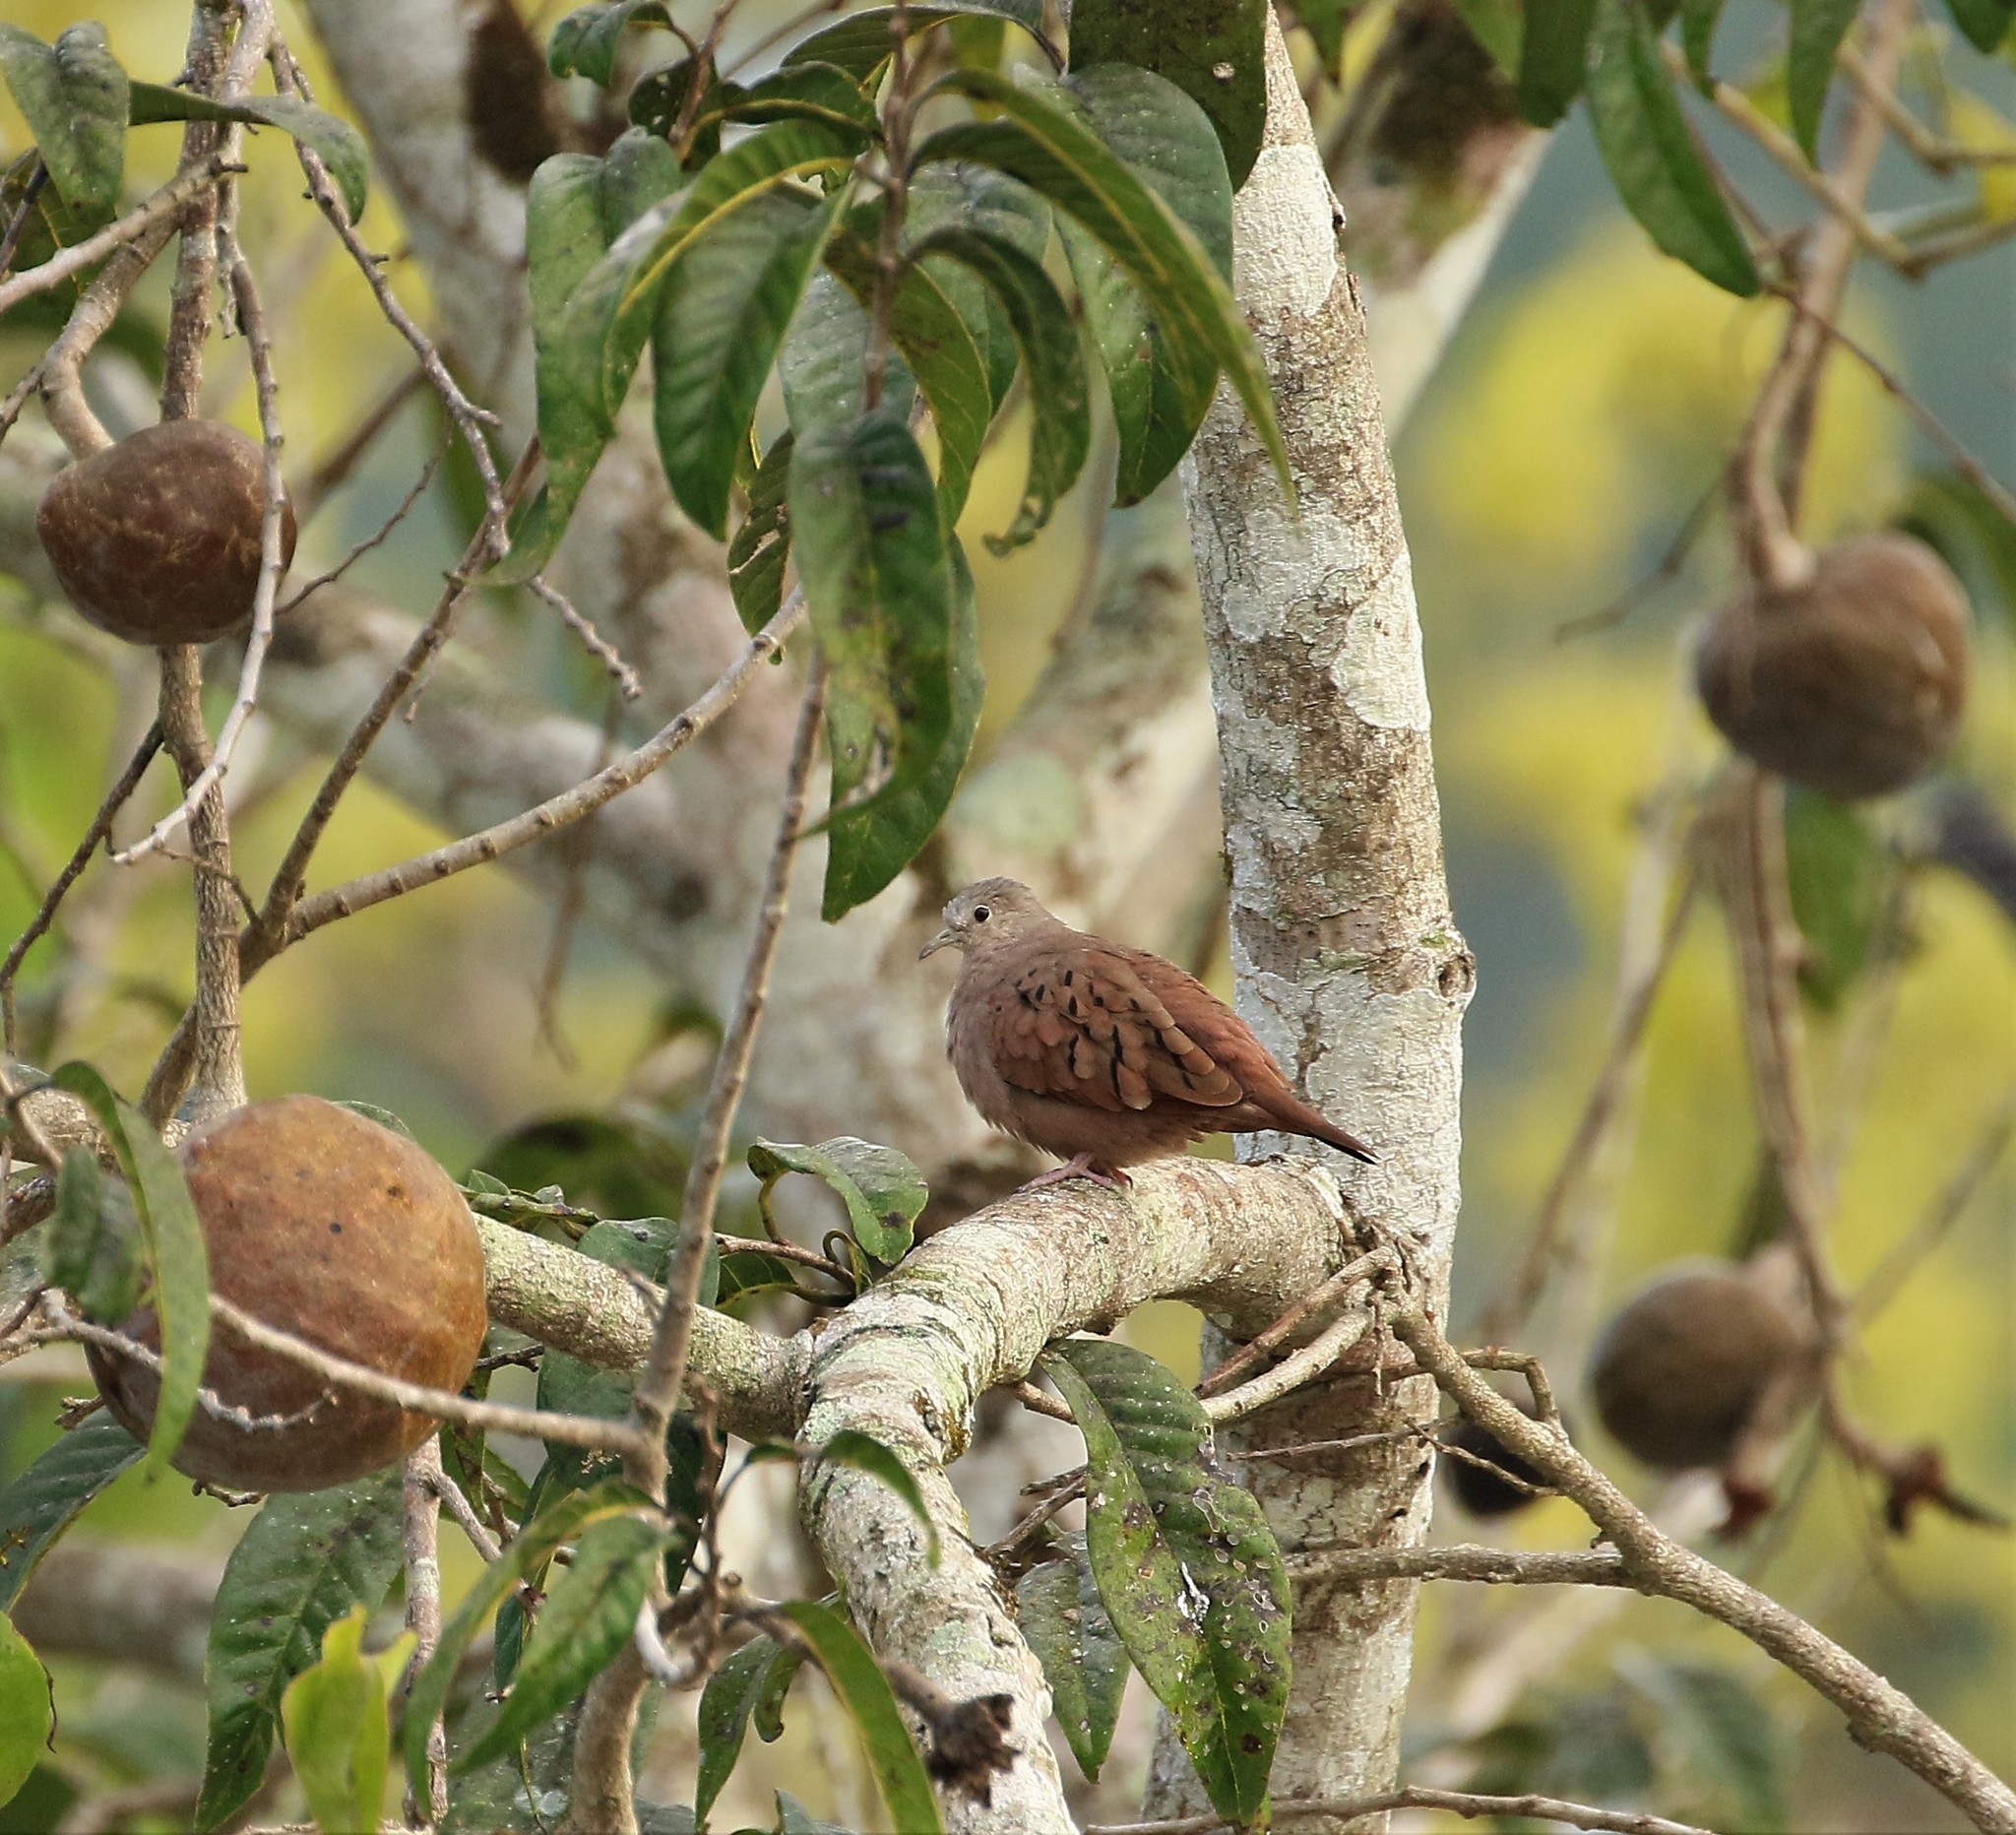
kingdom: Animalia
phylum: Chordata
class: Aves
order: Columbiformes
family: Columbidae
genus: Columbina
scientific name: Columbina talpacoti
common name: Ruddy ground dove
